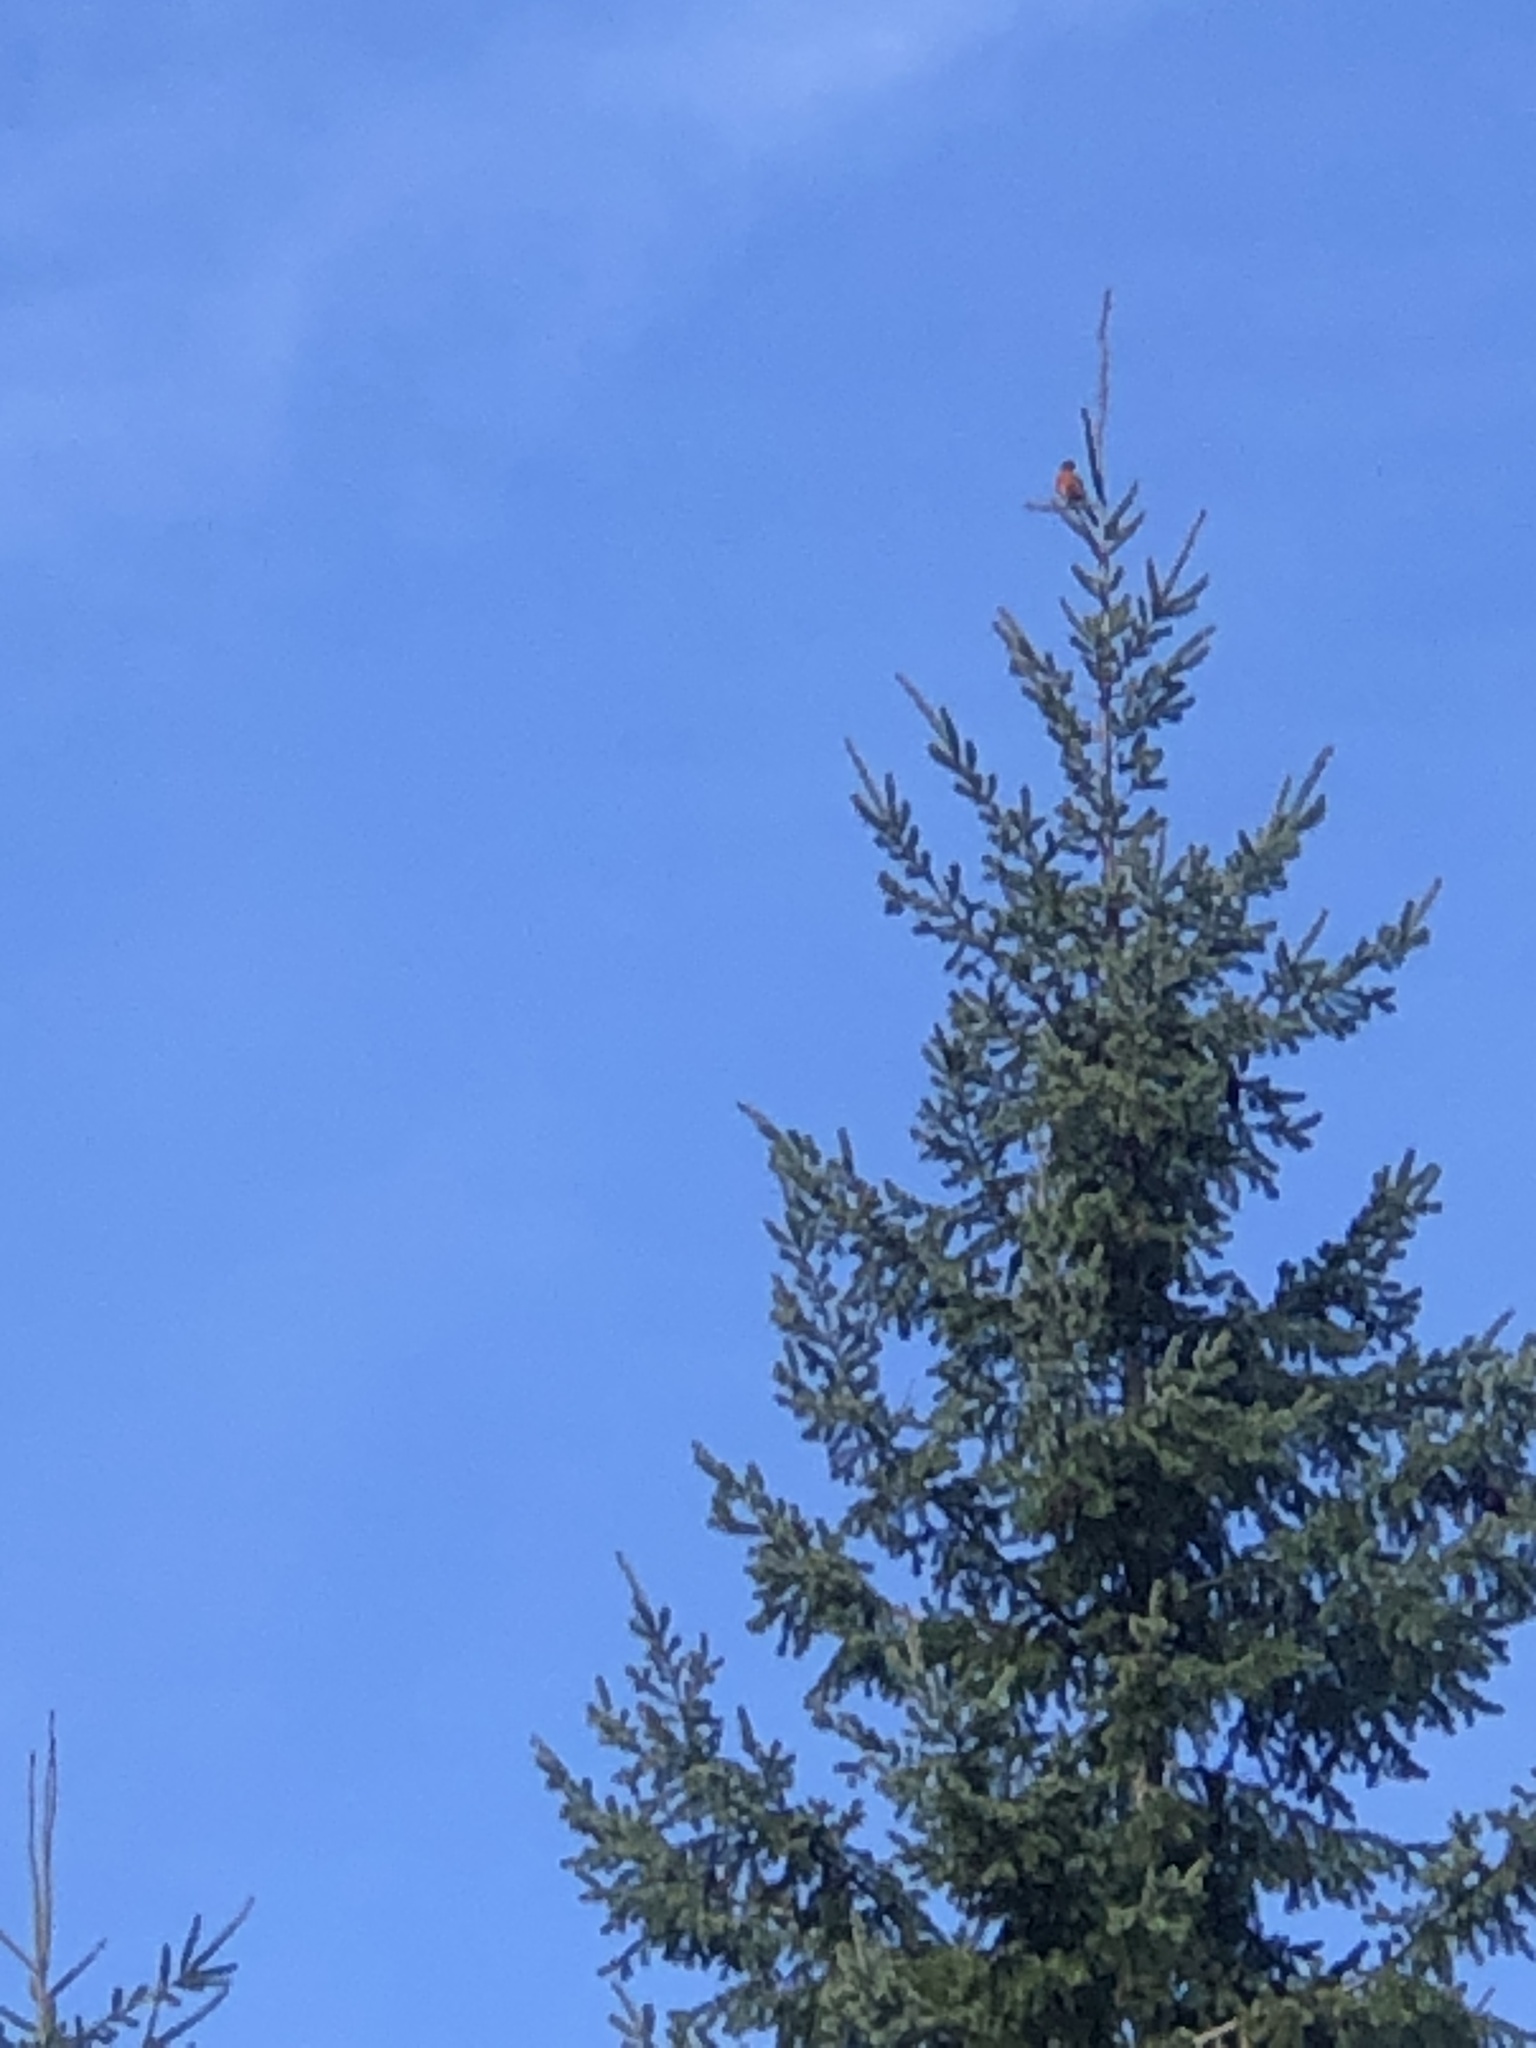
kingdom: Animalia
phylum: Chordata
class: Aves
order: Passeriformes
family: Turdidae
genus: Turdus
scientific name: Turdus migratorius
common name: American robin
